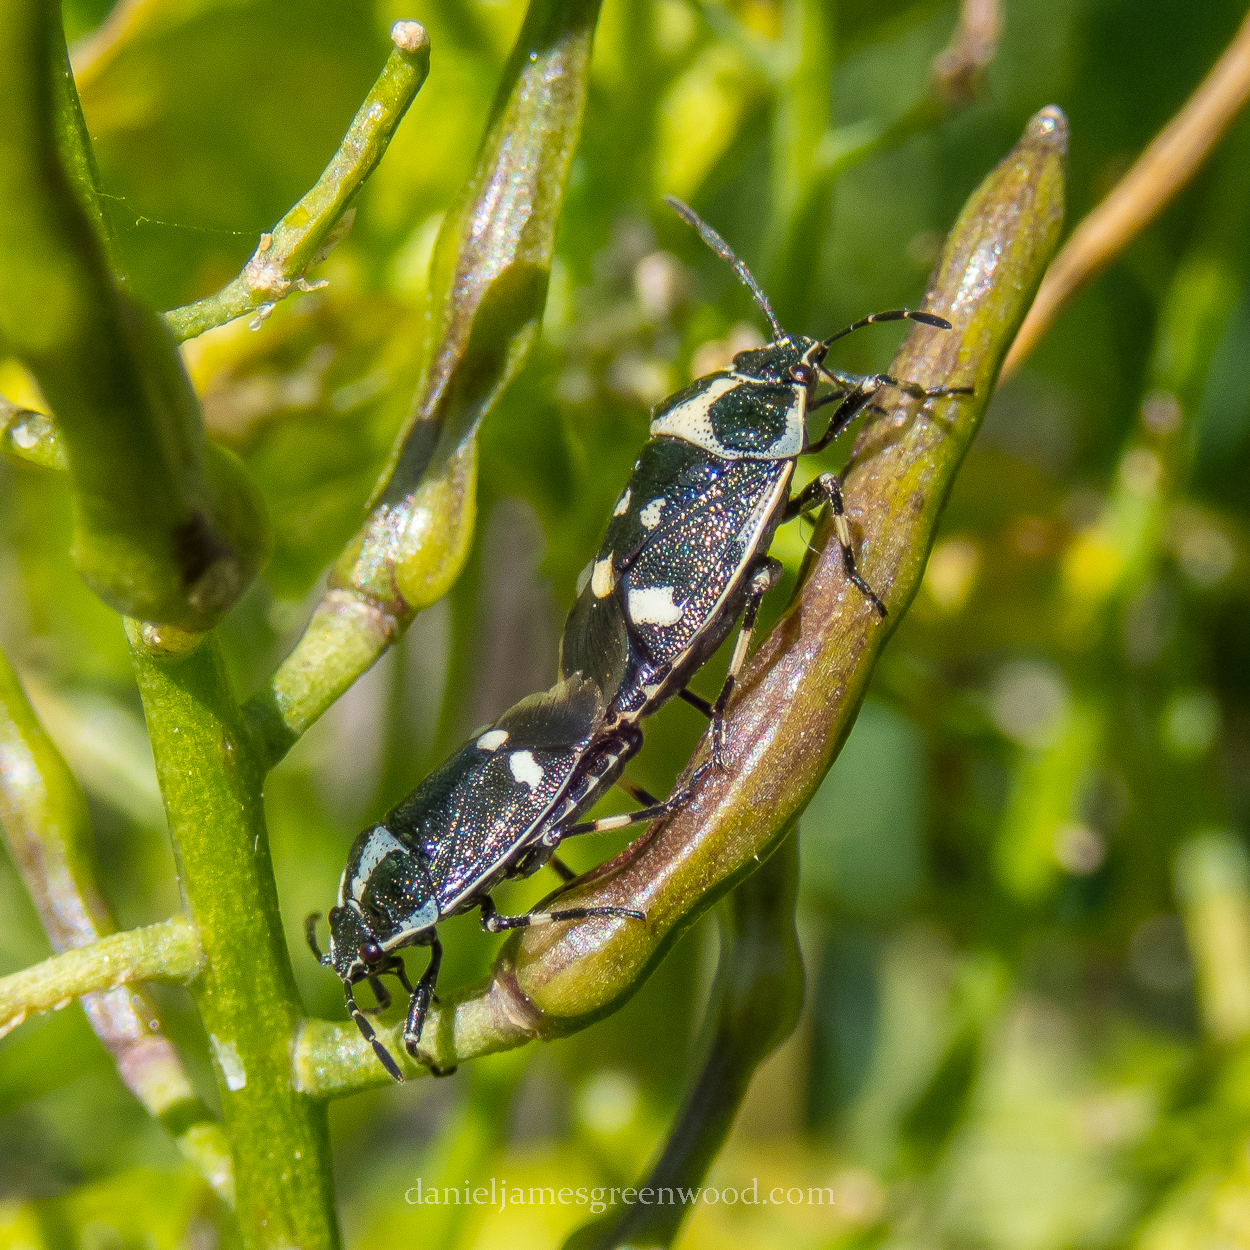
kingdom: Animalia
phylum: Arthropoda
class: Insecta
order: Hemiptera
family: Pentatomidae
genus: Eurydema
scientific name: Eurydema oleracea
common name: Cabbage bug
